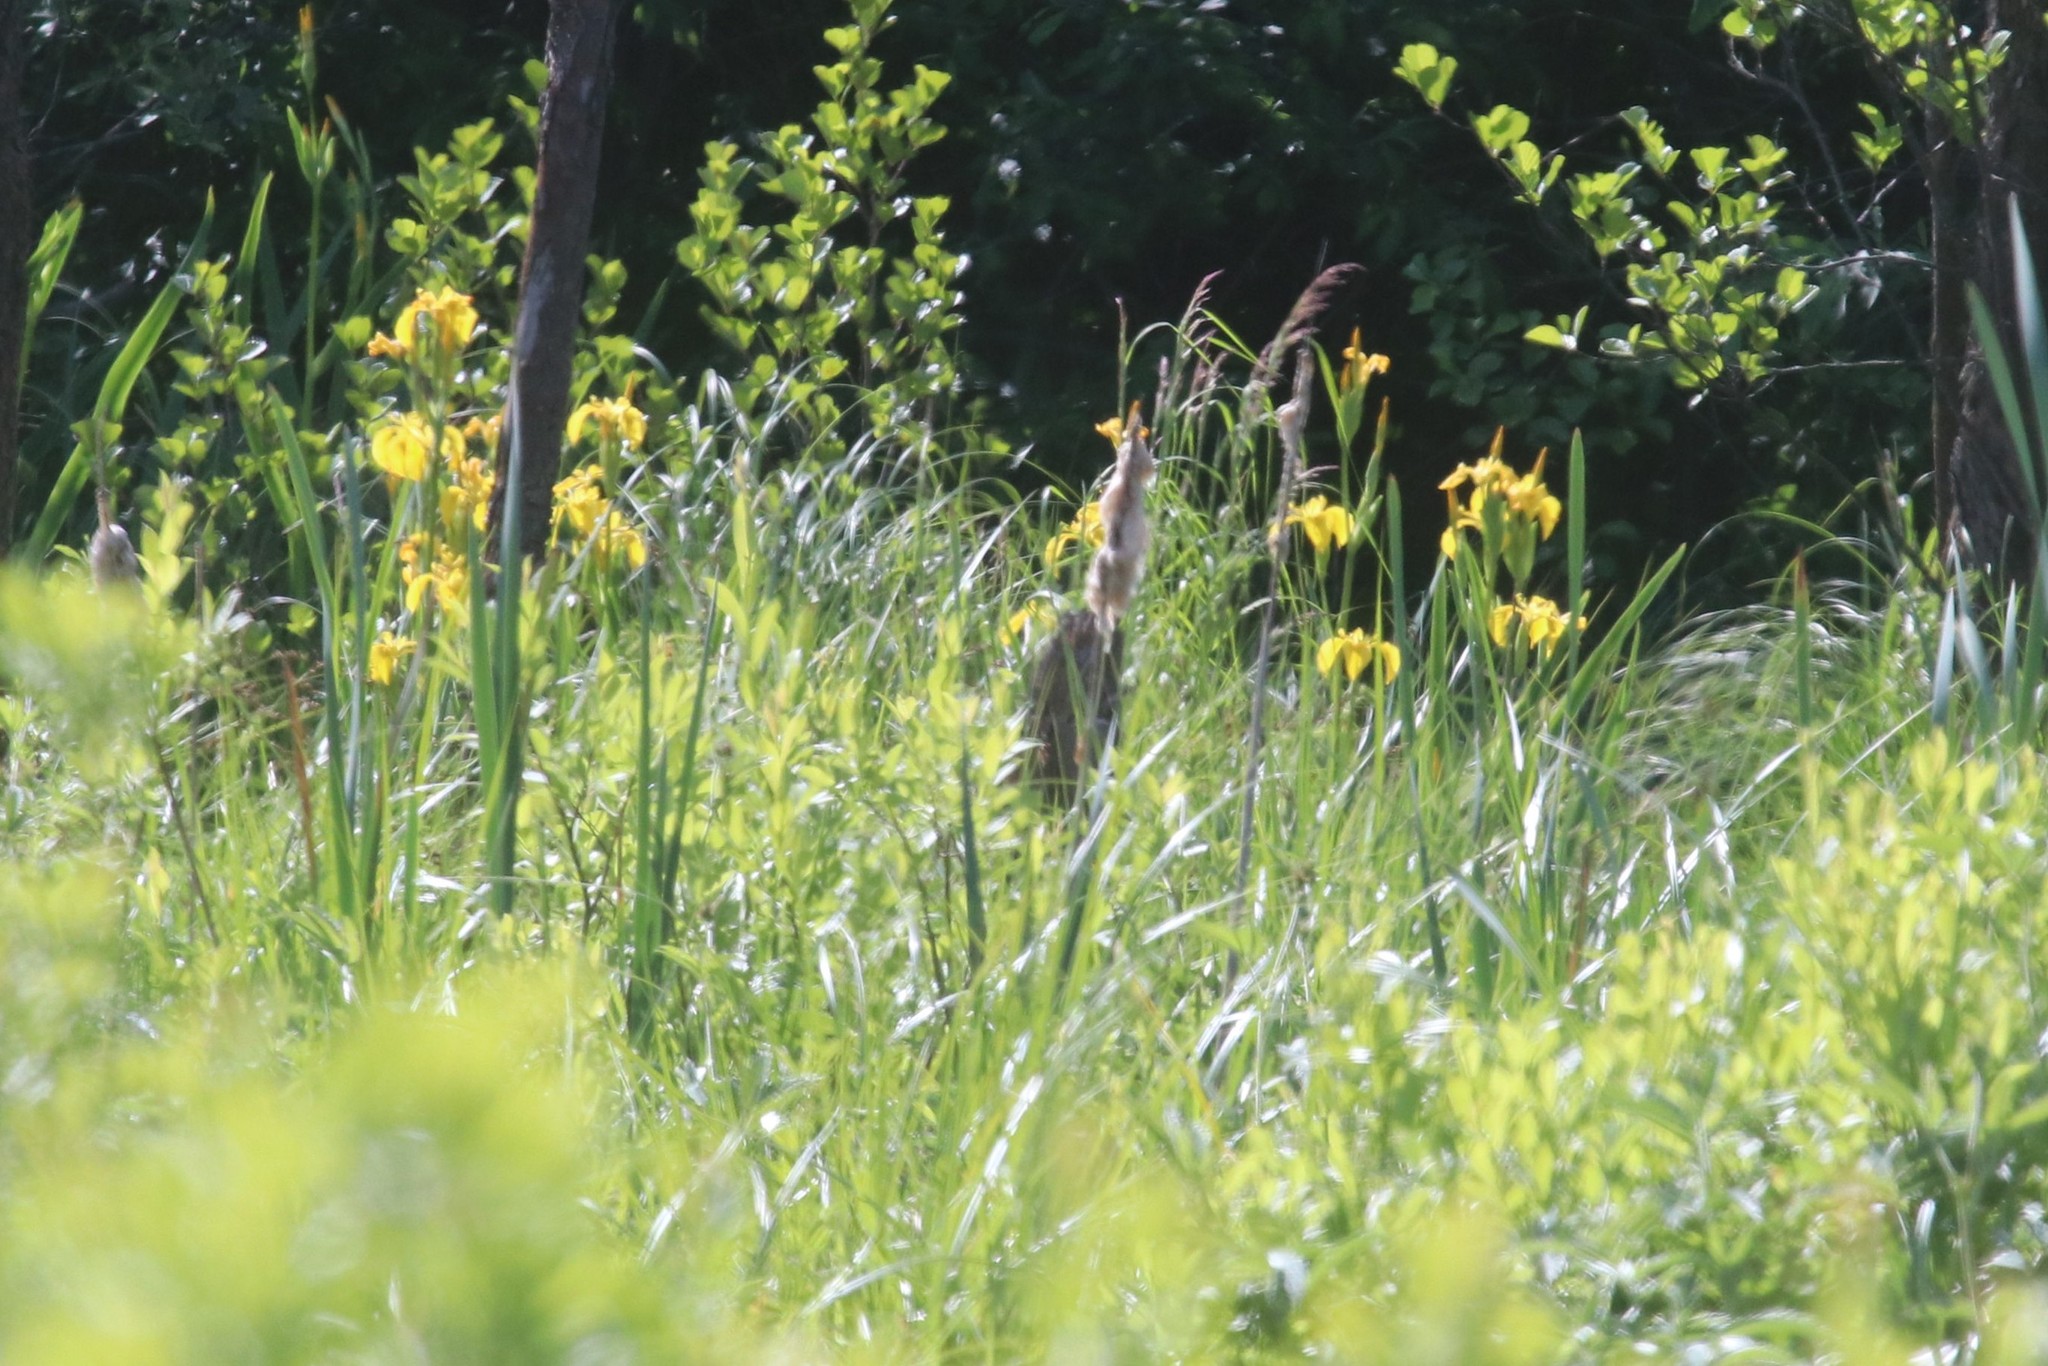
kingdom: Plantae
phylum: Tracheophyta
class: Liliopsida
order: Asparagales
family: Iridaceae
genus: Iris
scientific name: Iris pseudacorus
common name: Yellow flag
